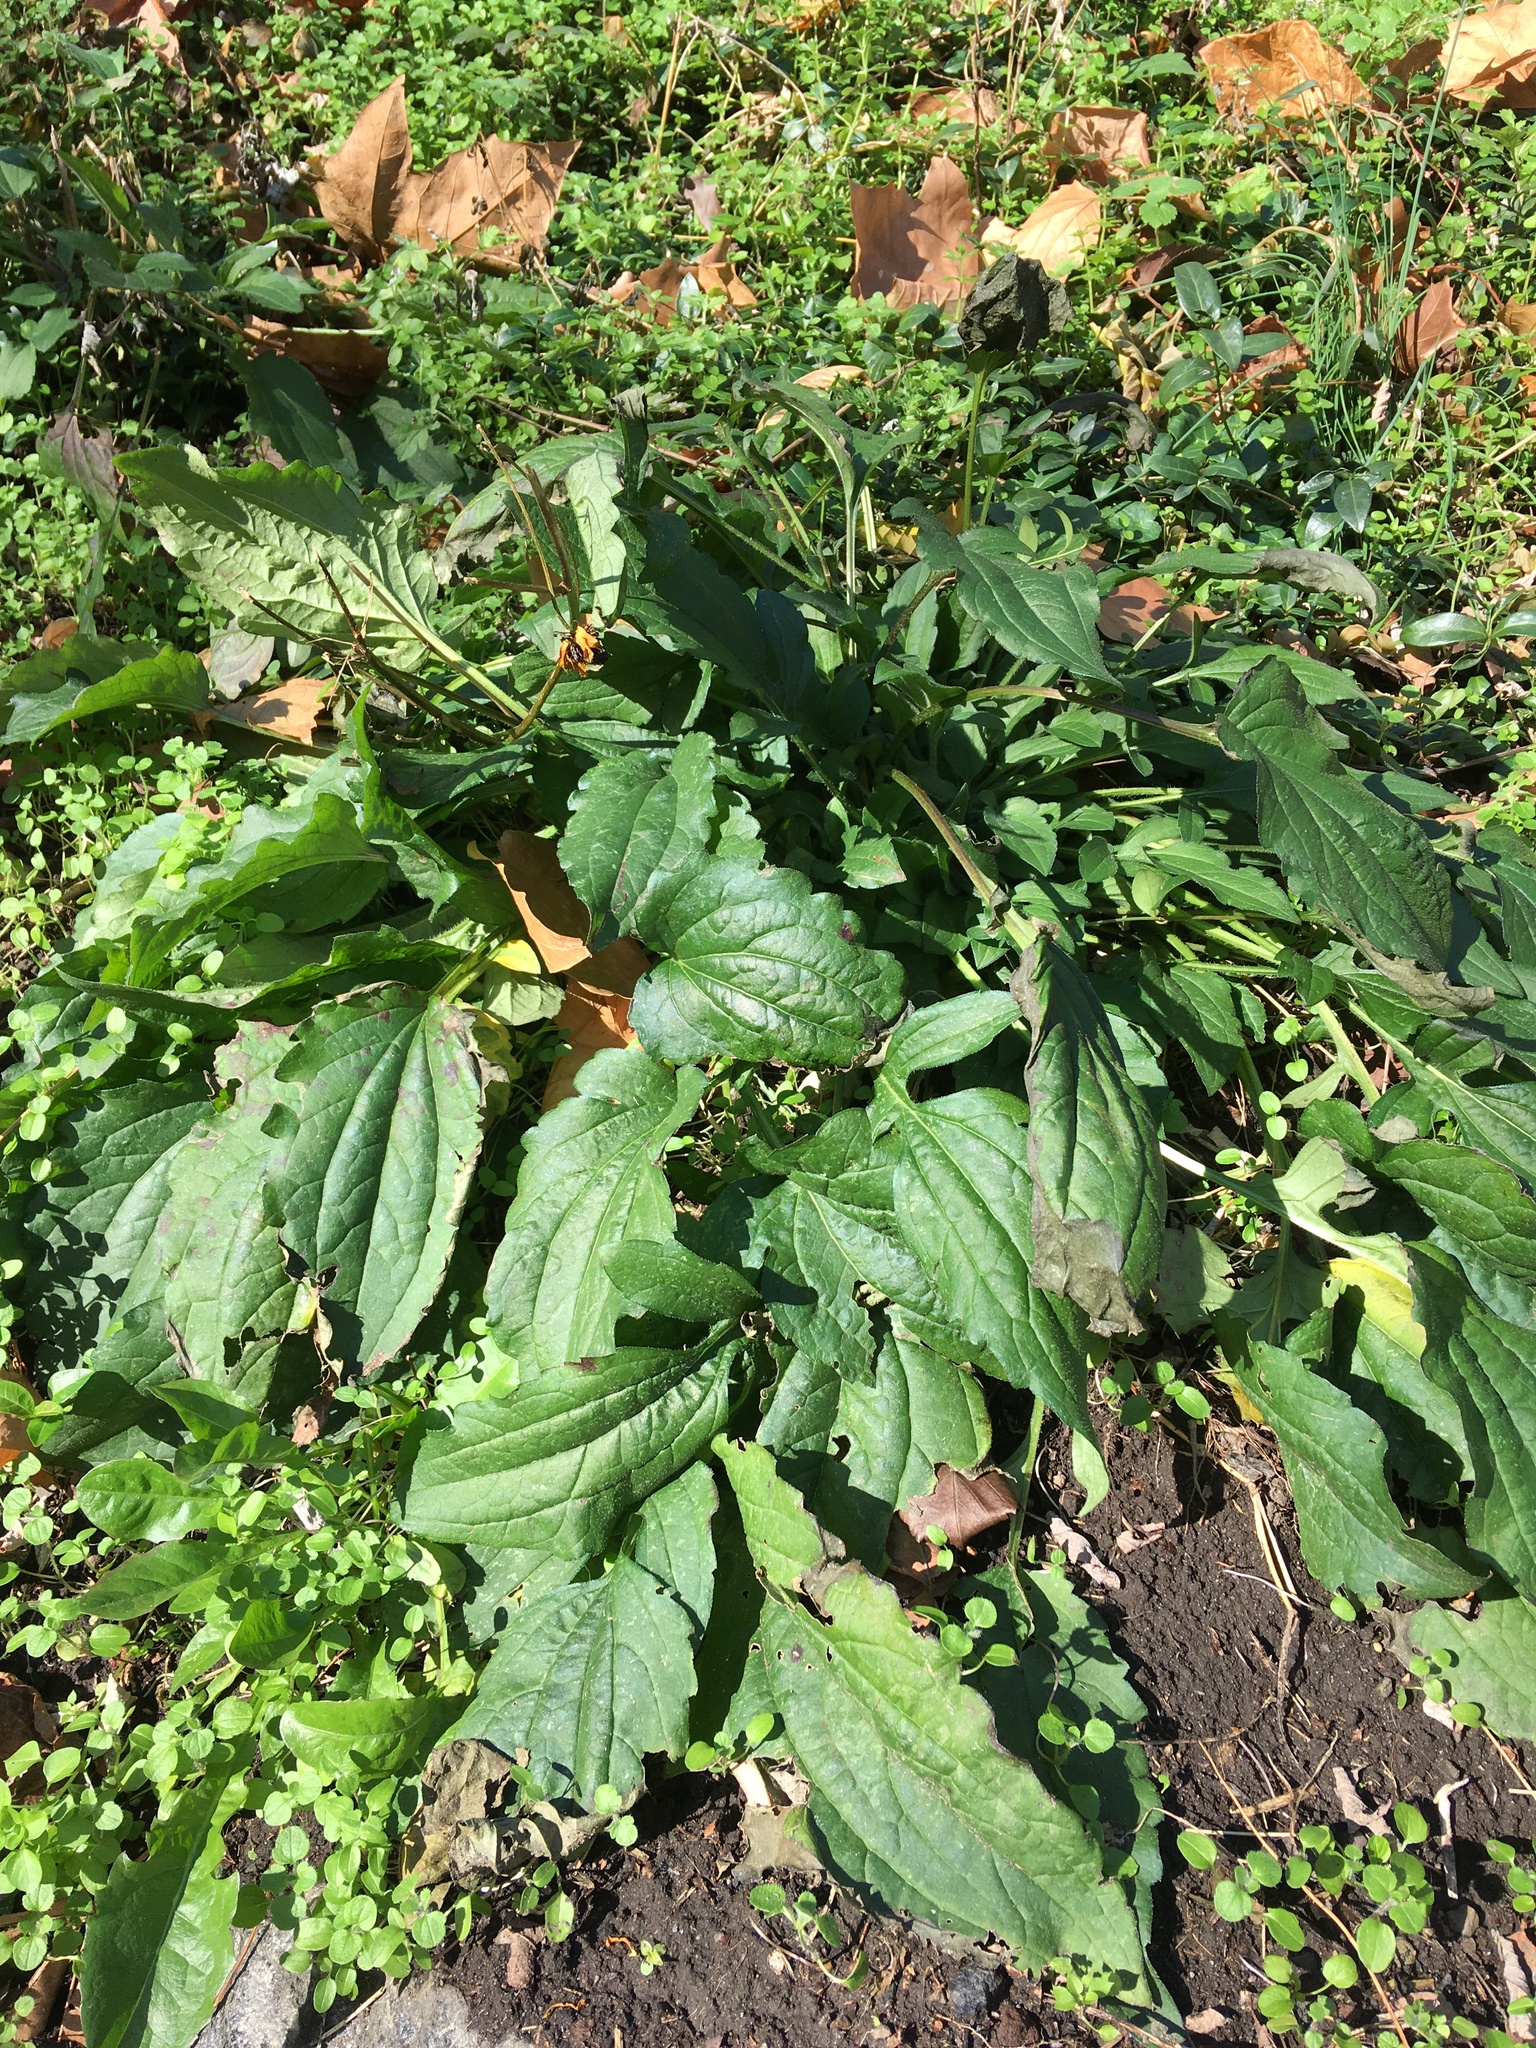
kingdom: Plantae
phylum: Tracheophyta
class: Magnoliopsida
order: Asterales
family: Asteraceae
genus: Rudbeckia
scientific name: Rudbeckia triloba
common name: Thin-leaved coneflower
